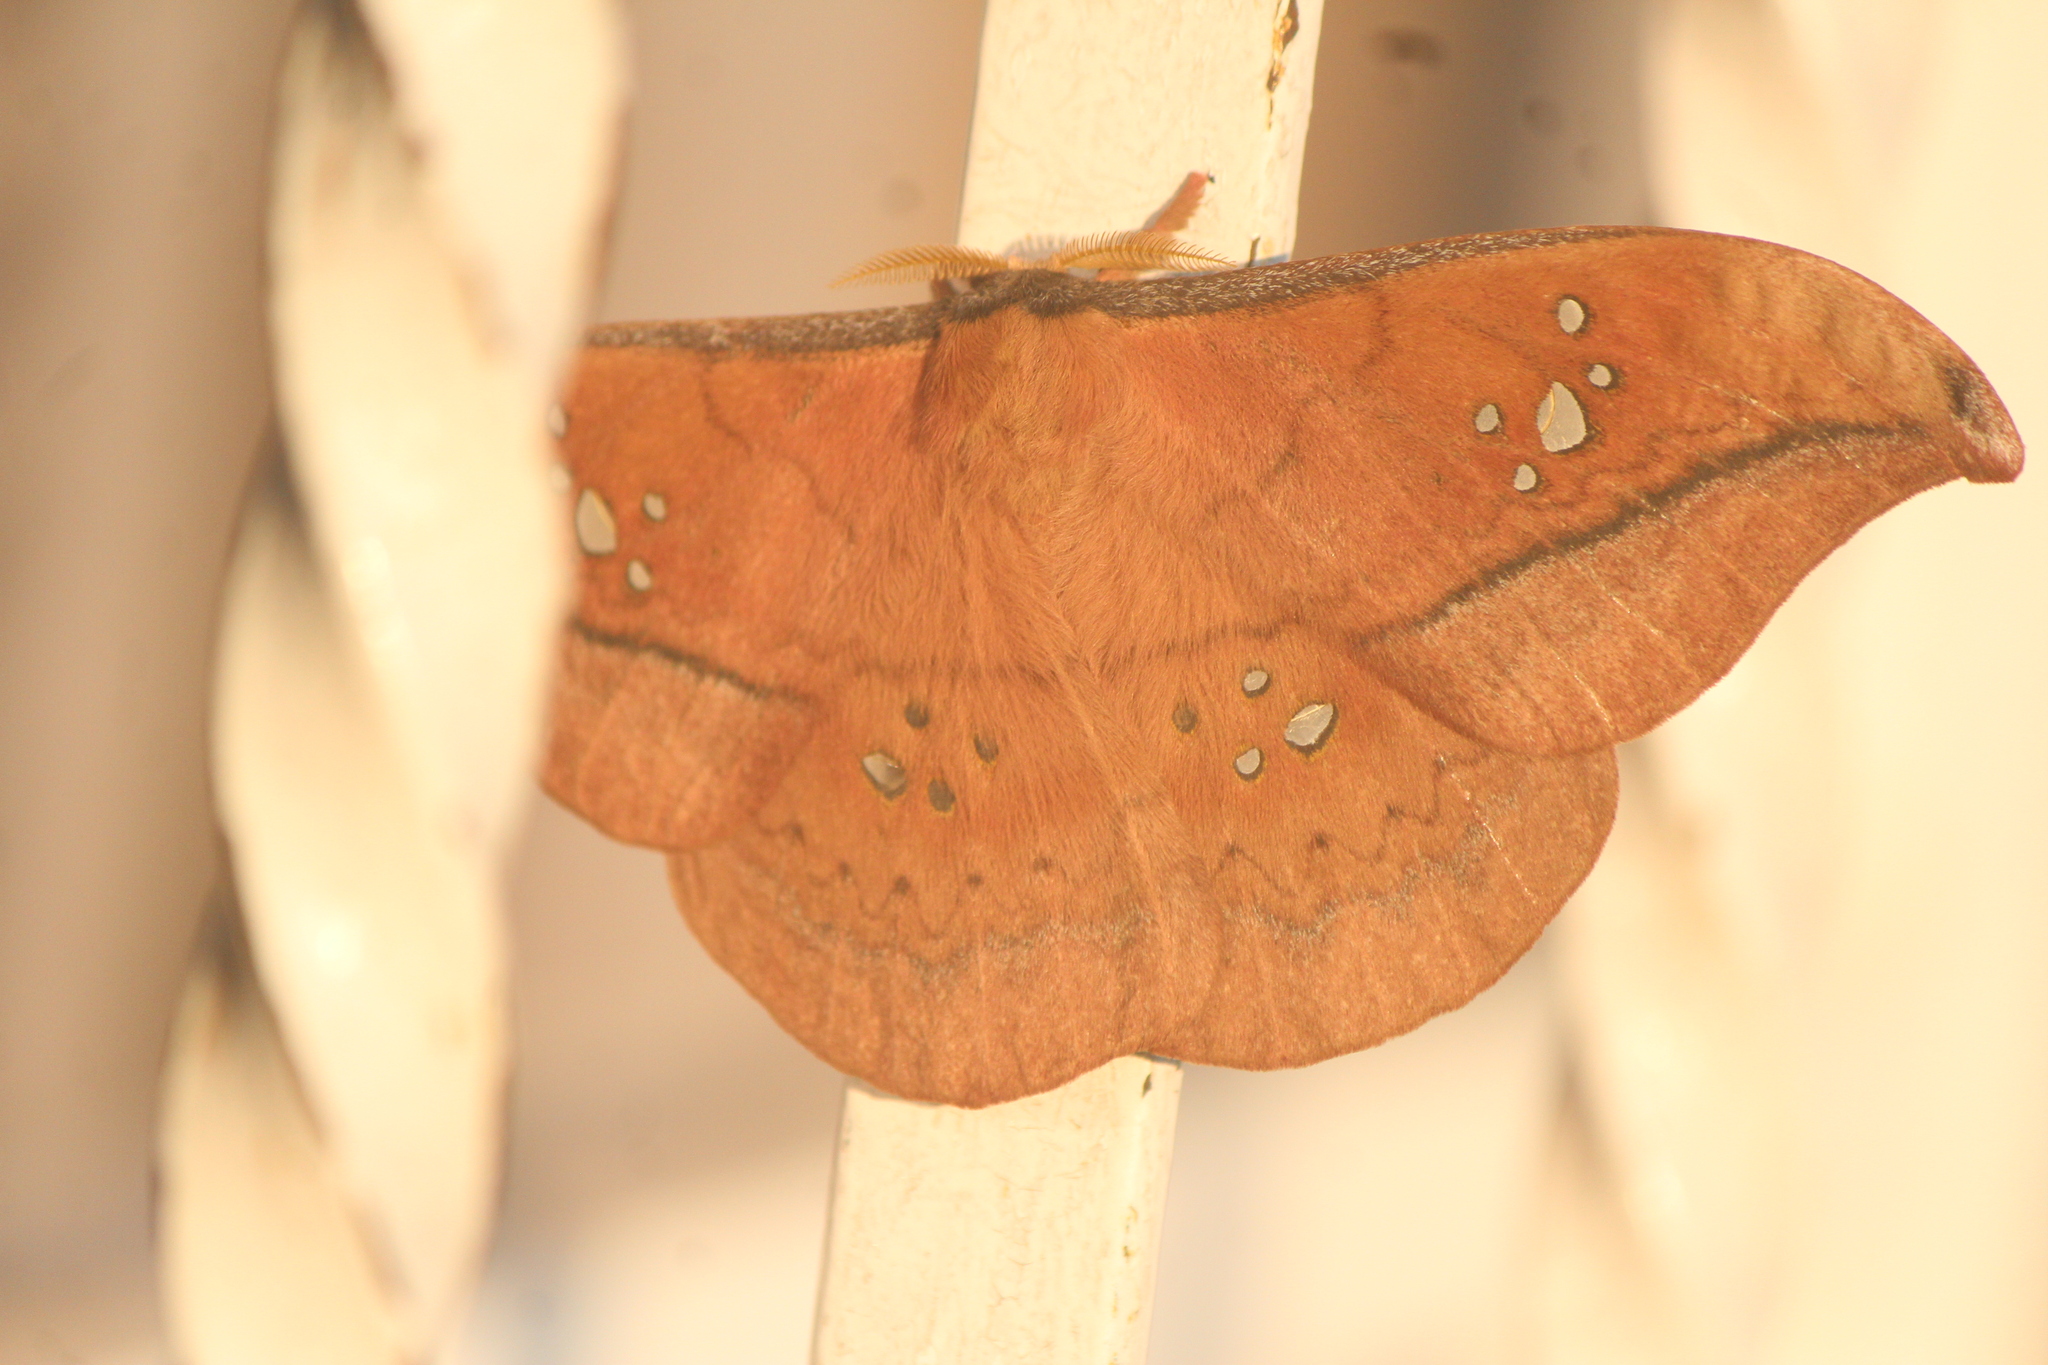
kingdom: Animalia
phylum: Arthropoda
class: Insecta
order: Lepidoptera
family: Saturniidae
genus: Copaxa
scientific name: Copaxa multifenestrata
